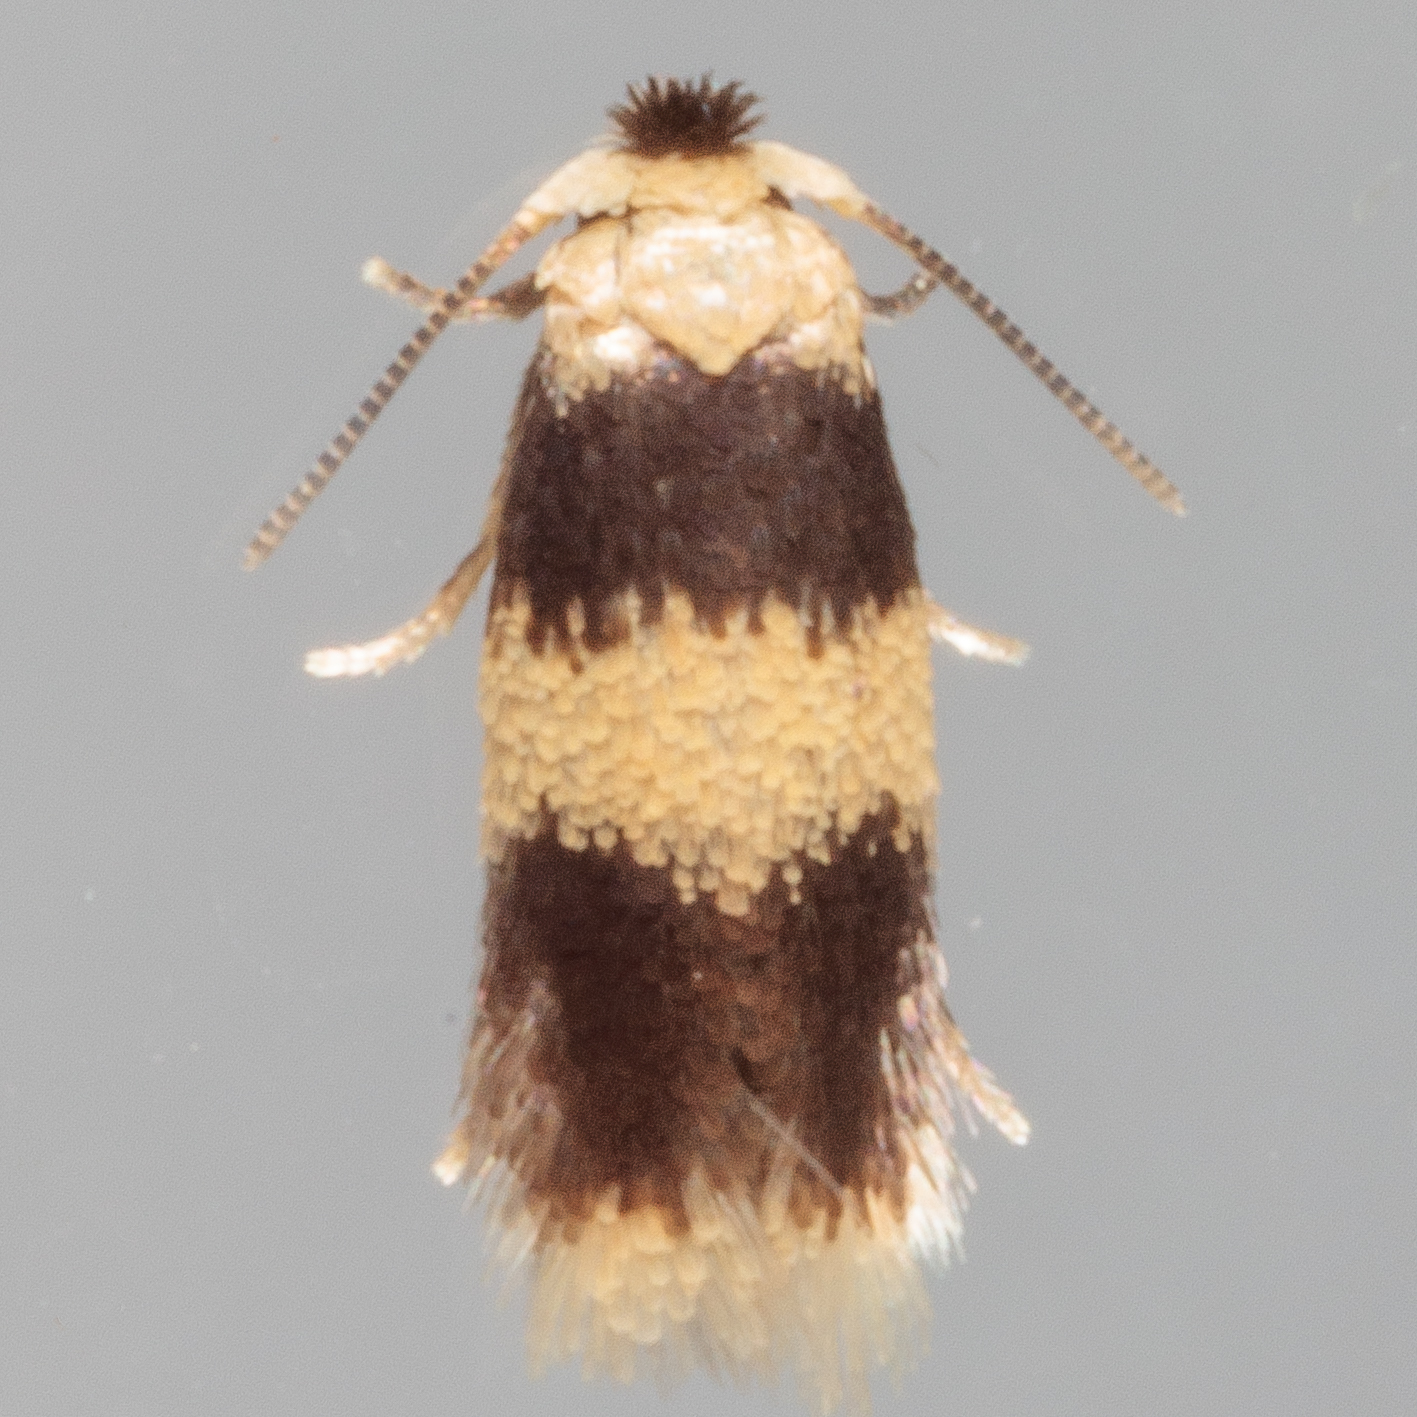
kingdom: Animalia
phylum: Arthropoda
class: Insecta
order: Lepidoptera
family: Nepticulidae
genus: Stigmella
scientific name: Stigmella nigriverticella
